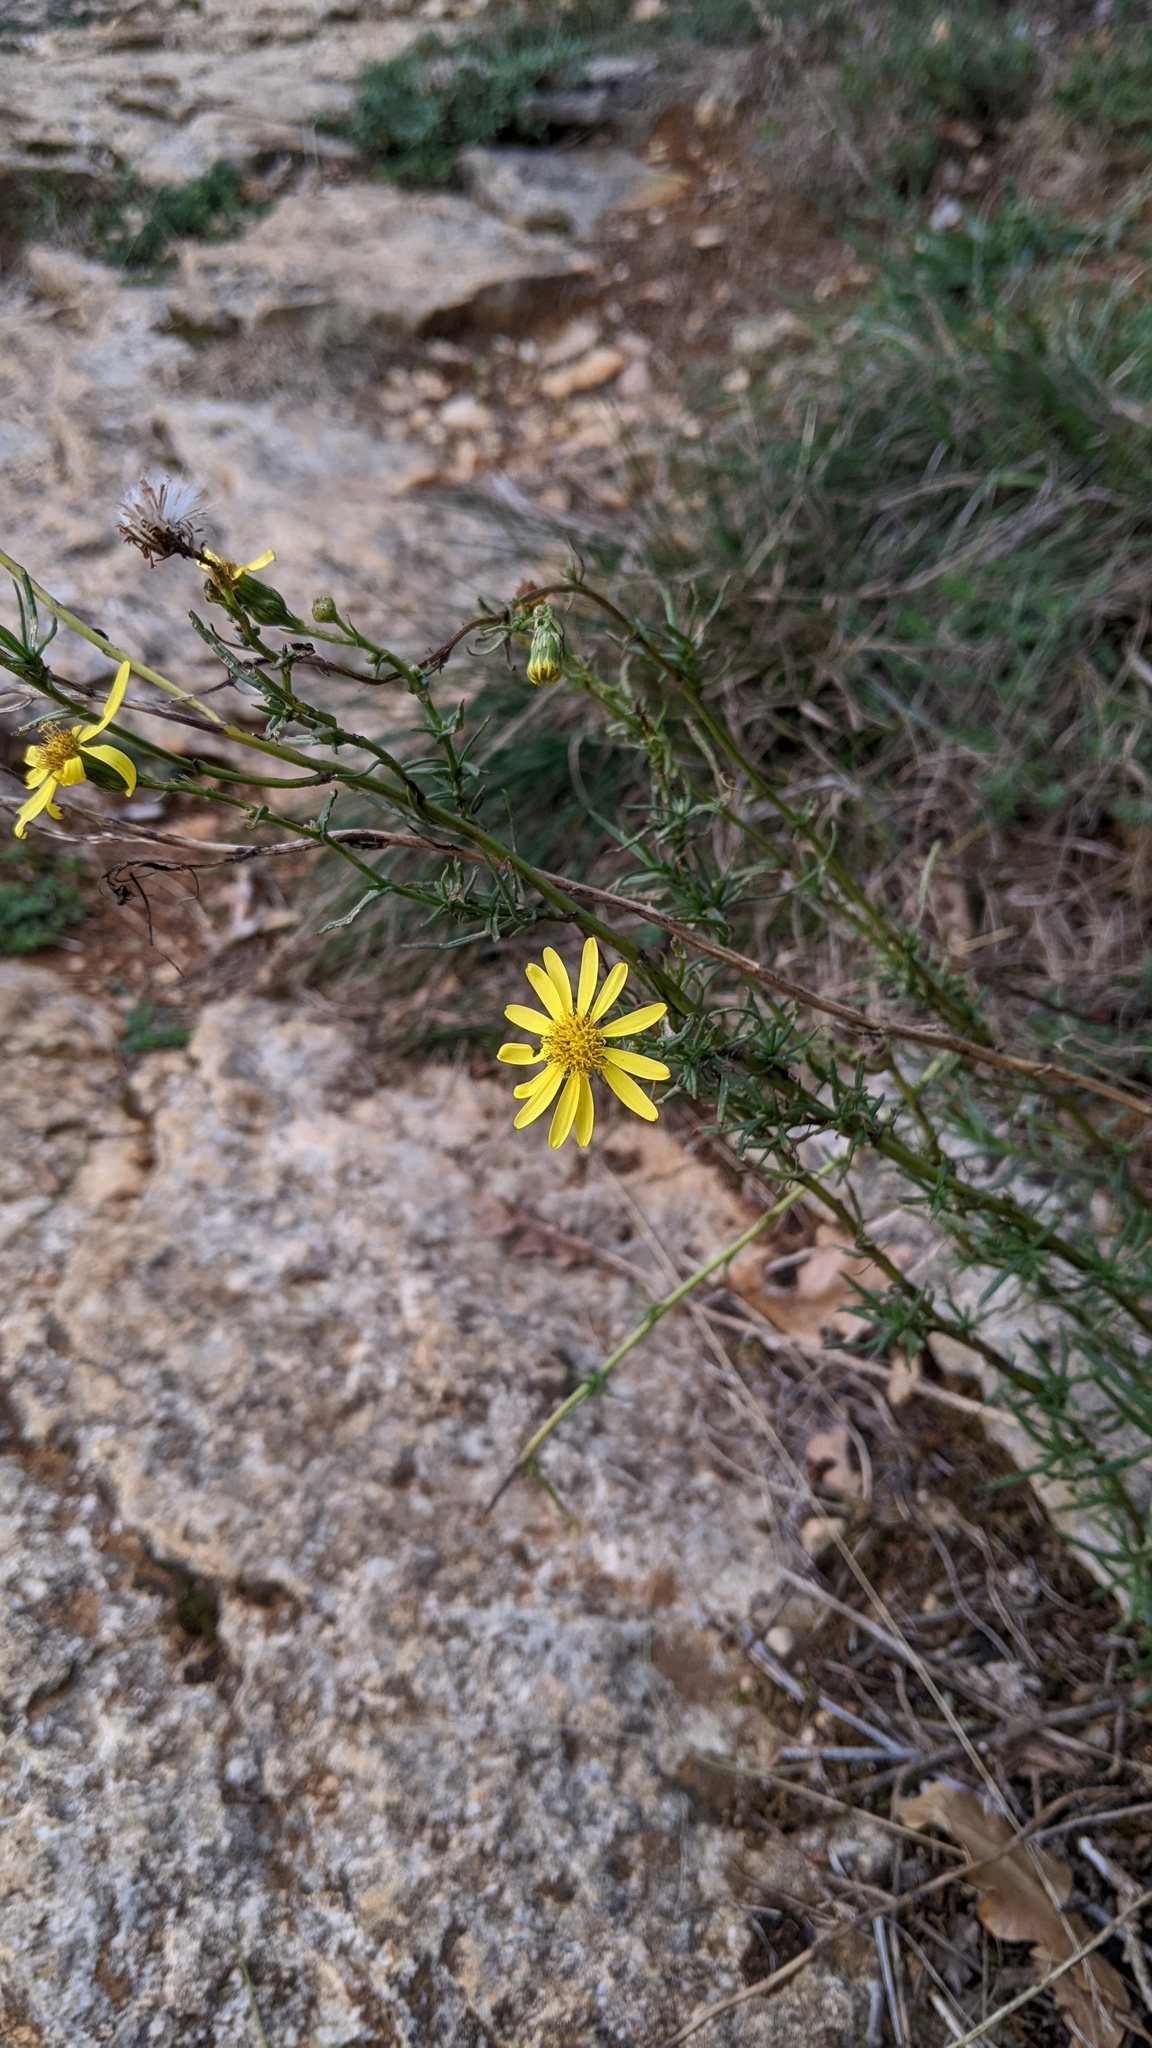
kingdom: Plantae
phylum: Tracheophyta
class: Magnoliopsida
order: Asterales
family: Asteraceae
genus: Senecio
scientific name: Senecio inaequidens
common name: Narrow-leaved ragwort
